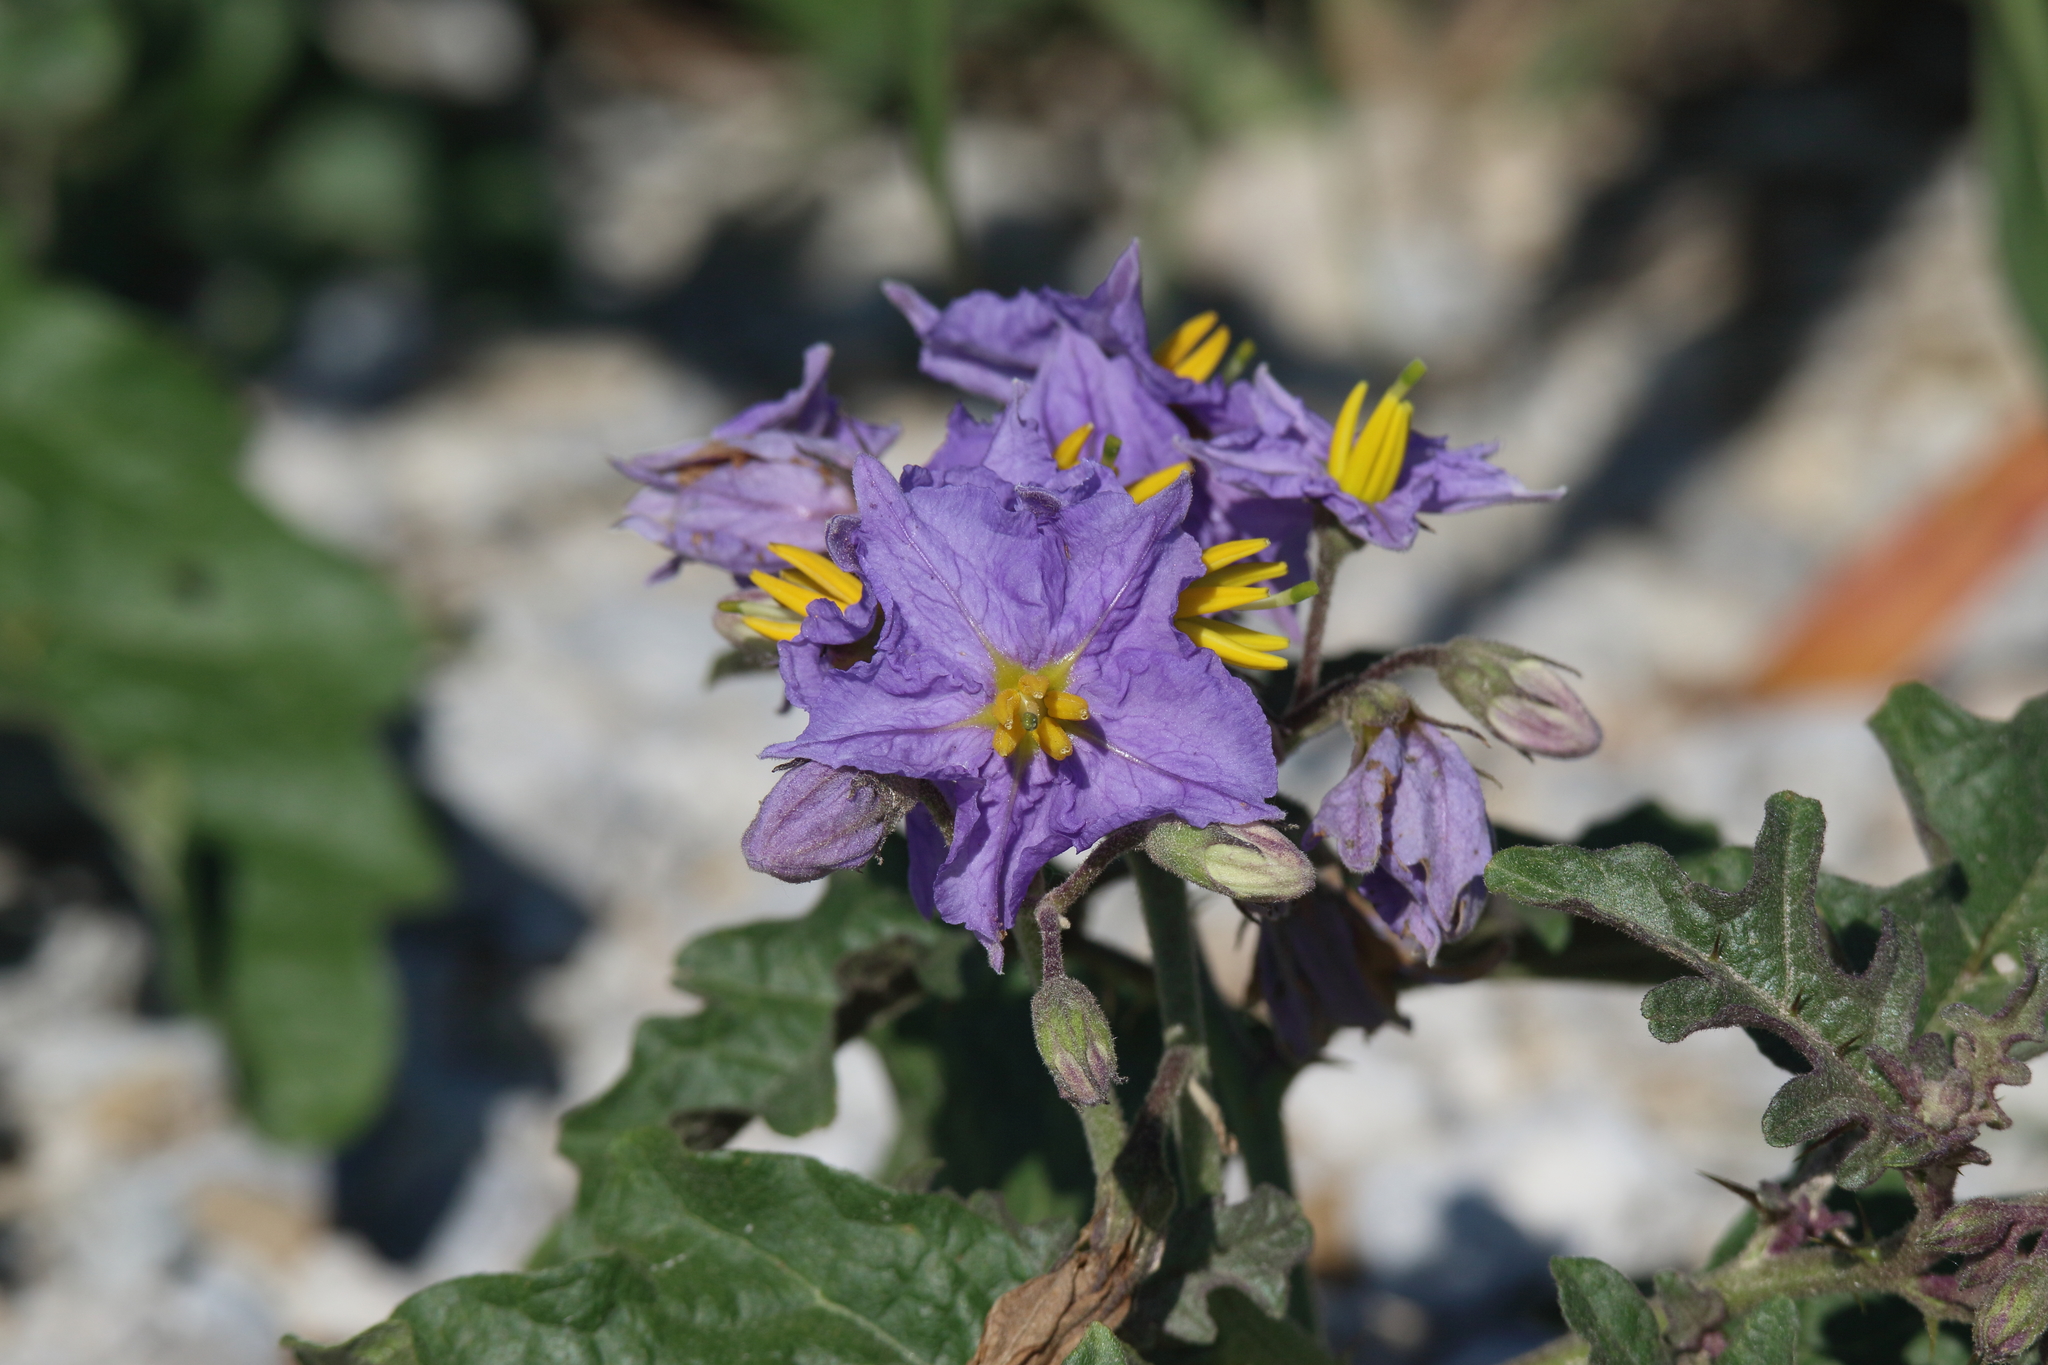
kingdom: Plantae
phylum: Tracheophyta
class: Magnoliopsida
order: Solanales
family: Solanaceae
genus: Solanum
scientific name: Solanum dimidiatum
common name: Carolina horse-nettle
